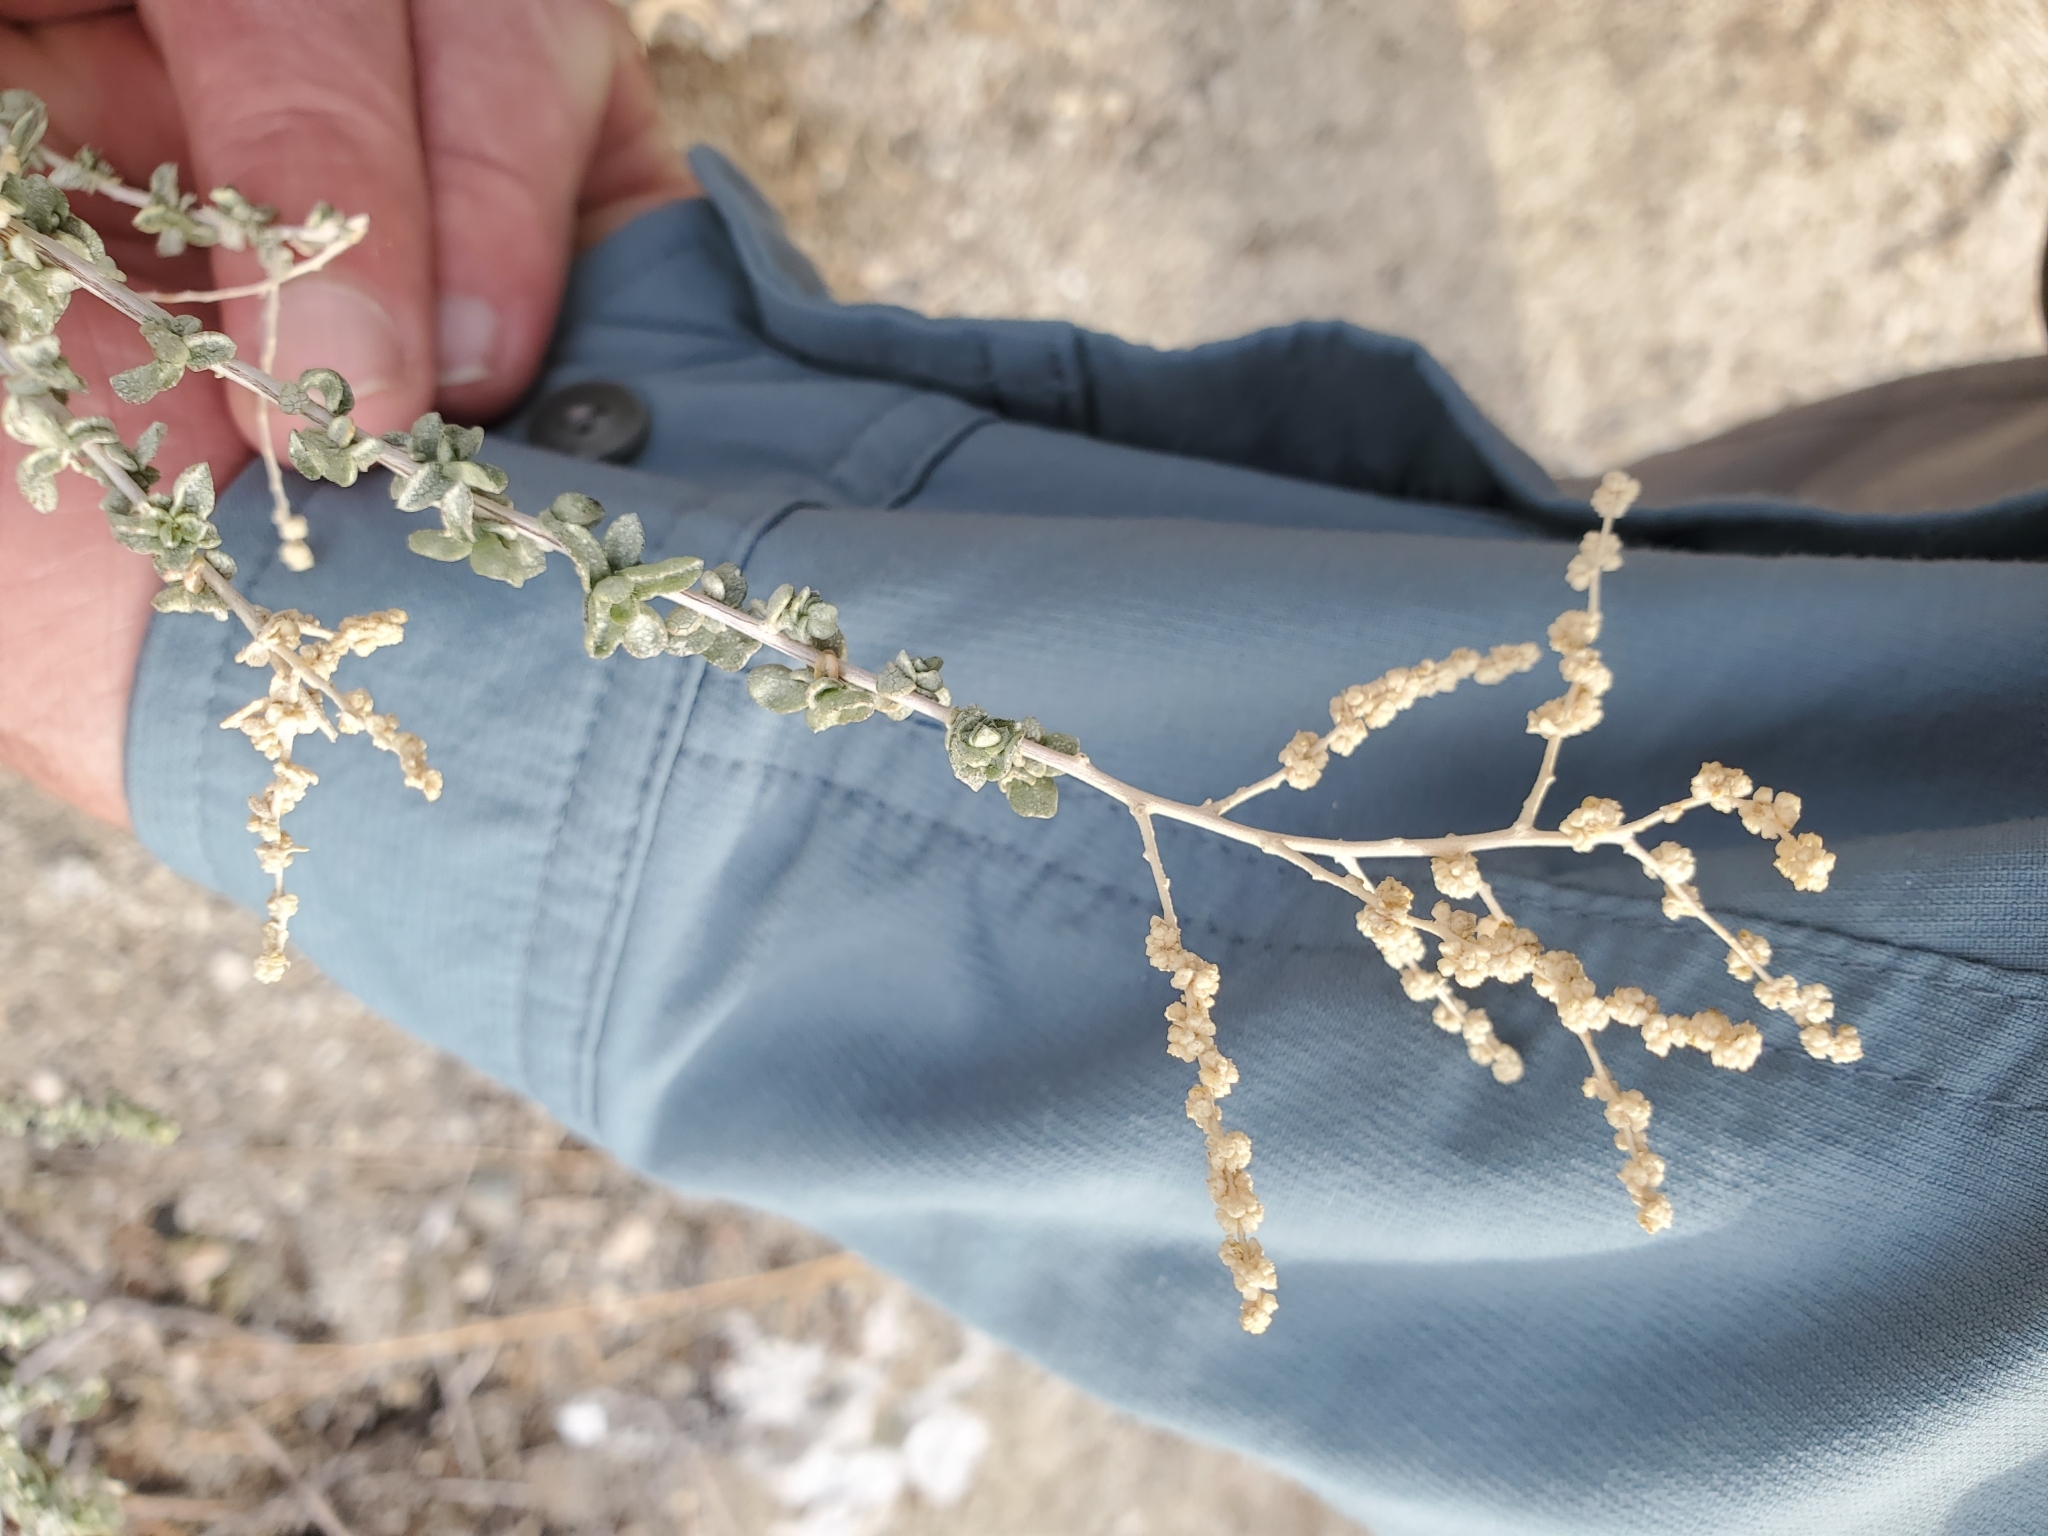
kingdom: Plantae
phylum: Tracheophyta
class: Magnoliopsida
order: Caryophyllales
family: Amaranthaceae
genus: Atriplex
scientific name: Atriplex polycarpa
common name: Desert saltbush
